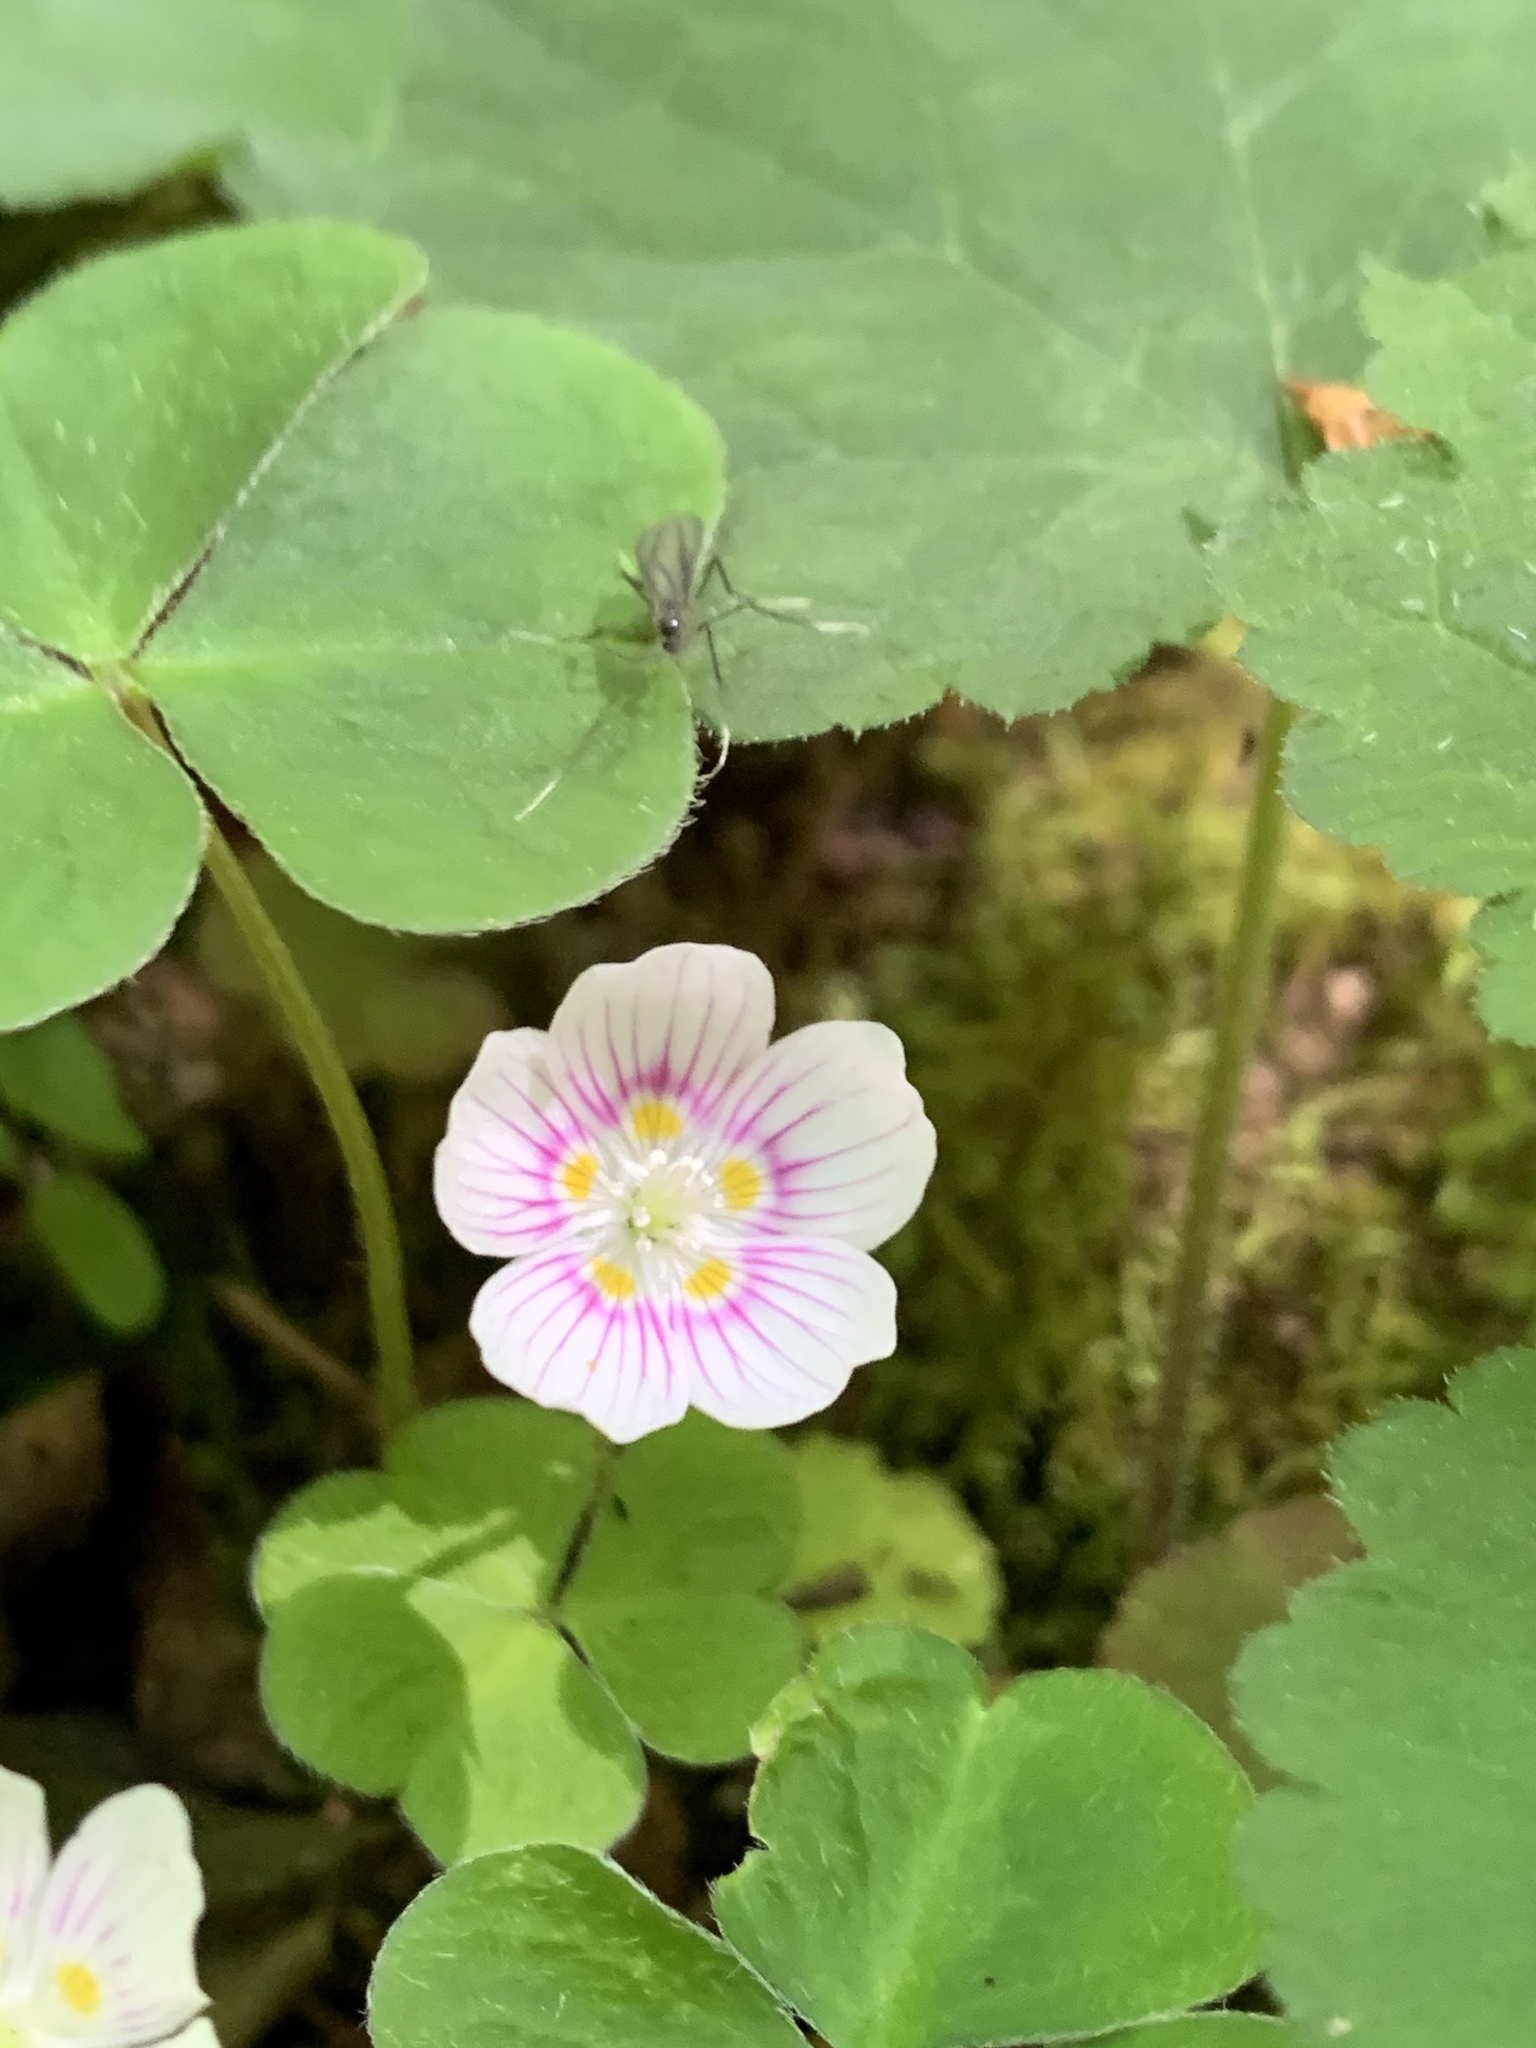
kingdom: Plantae
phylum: Tracheophyta
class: Magnoliopsida
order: Oxalidales
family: Oxalidaceae
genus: Oxalis
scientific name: Oxalis montana
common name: American wood-sorrel
